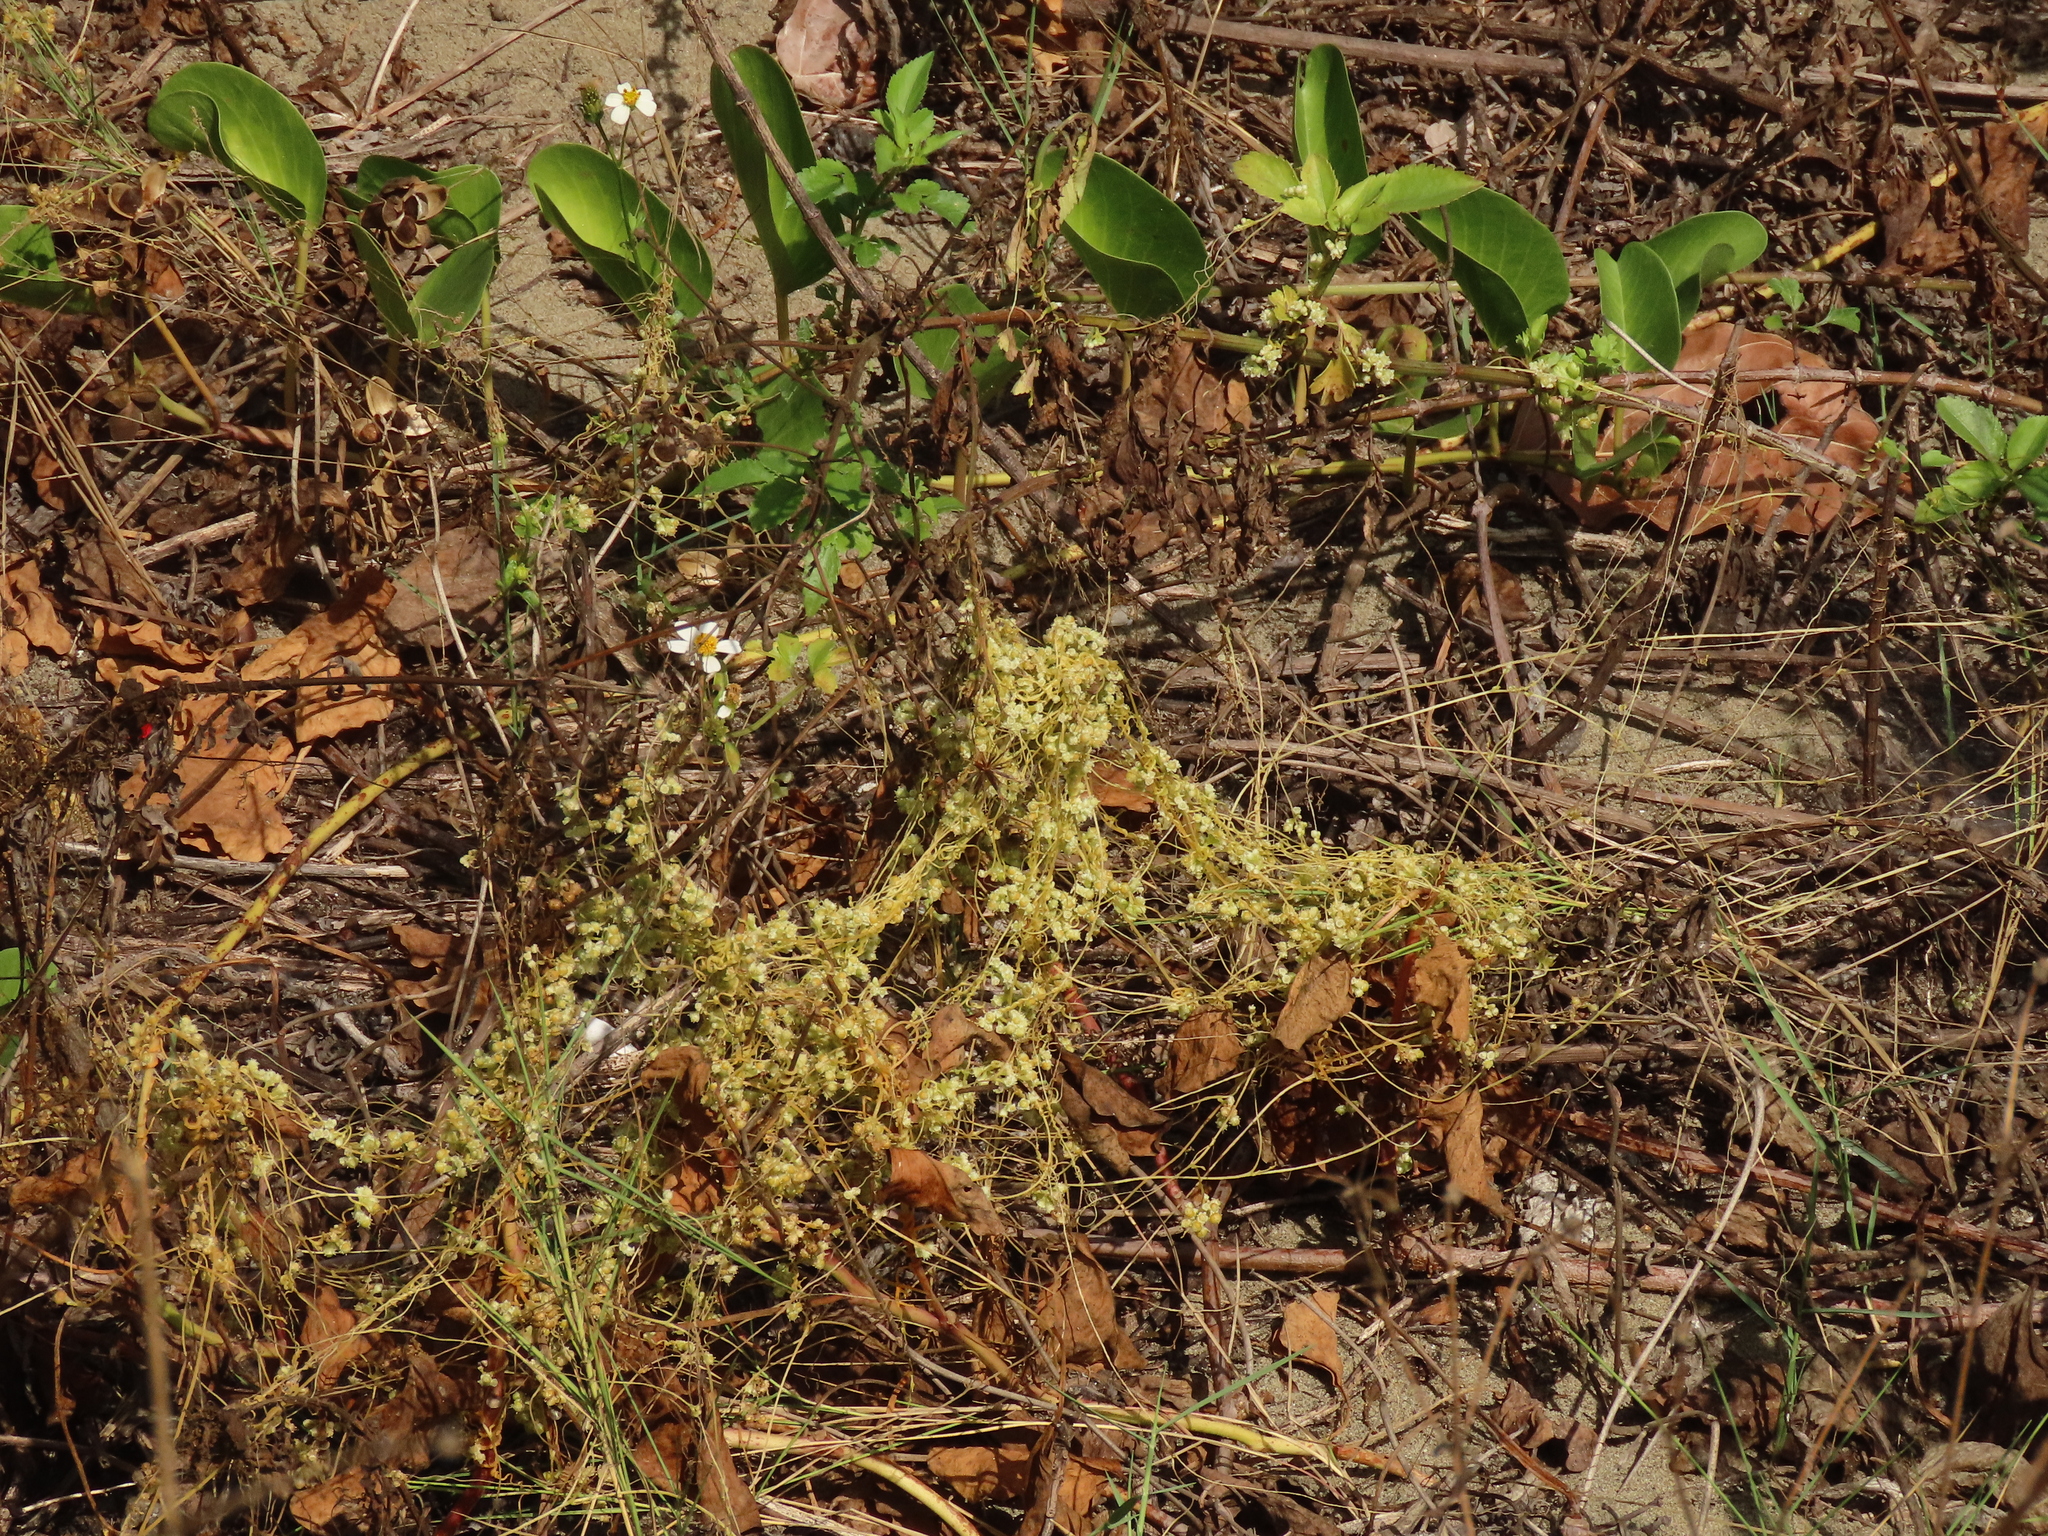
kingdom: Plantae
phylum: Tracheophyta
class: Magnoliopsida
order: Solanales
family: Convolvulaceae
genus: Cuscuta
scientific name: Cuscuta campestris
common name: Yellow dodder
